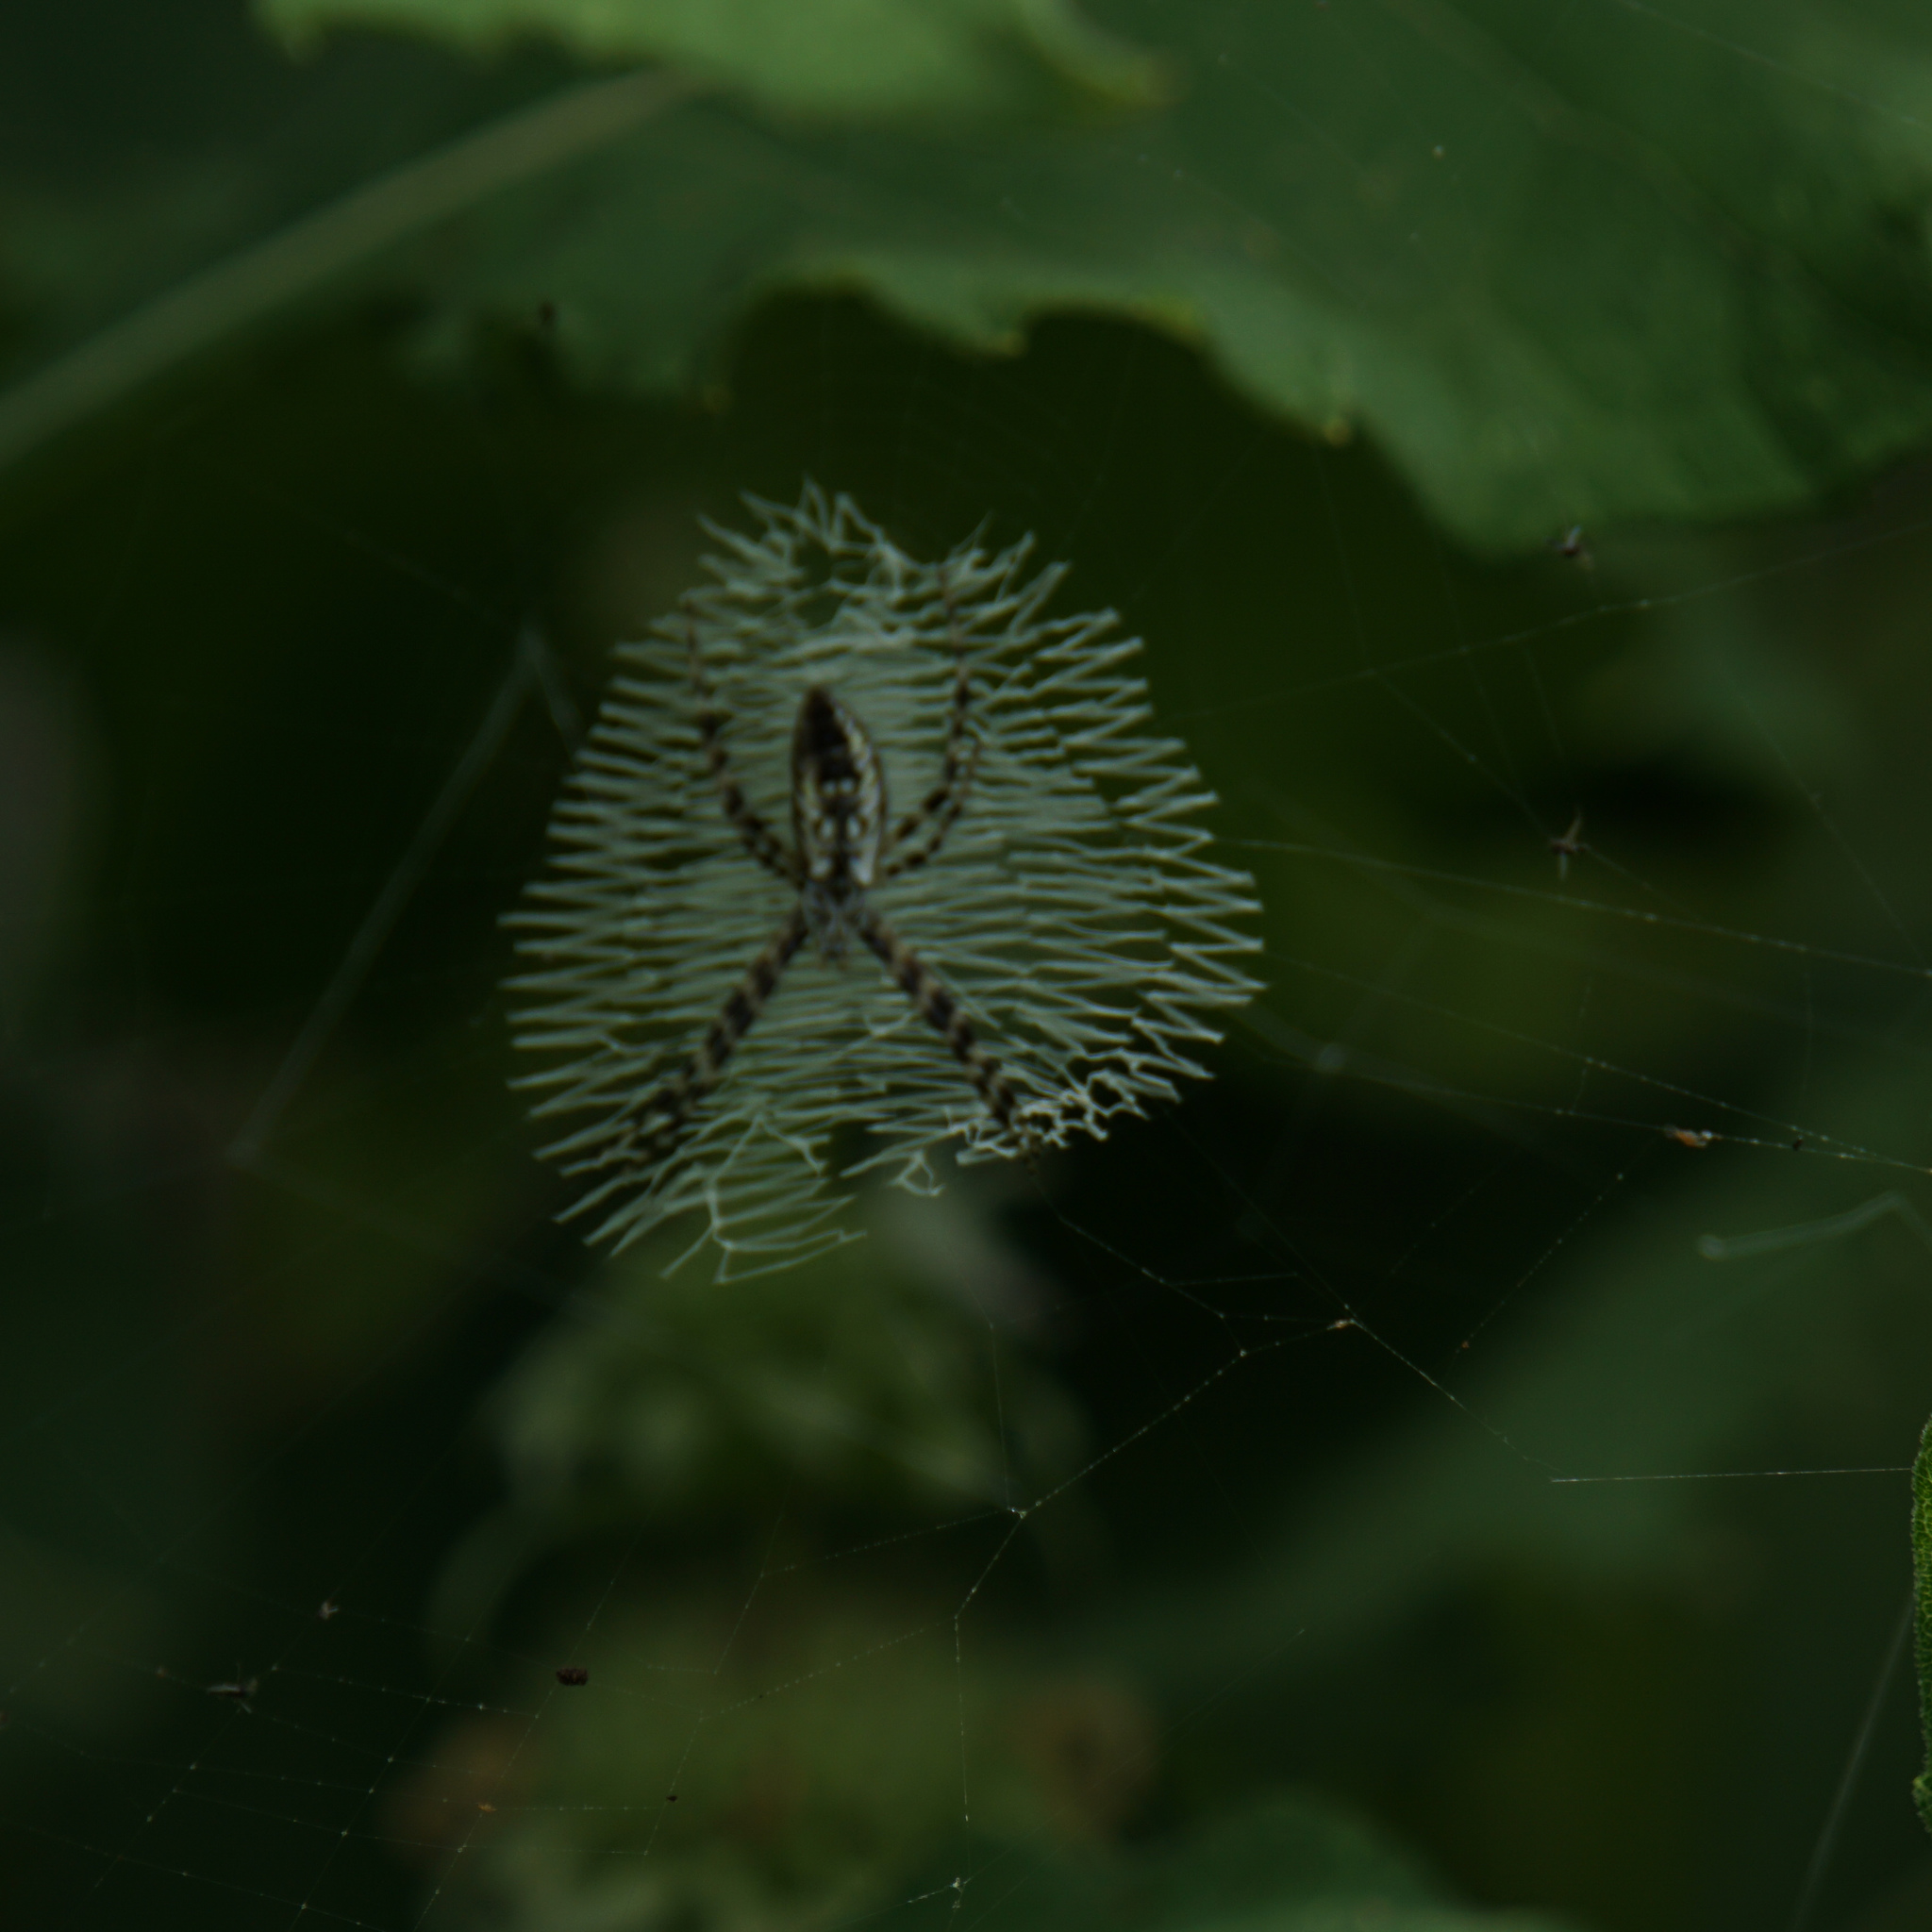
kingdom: Animalia
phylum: Arthropoda
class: Arachnida
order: Araneae
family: Araneidae
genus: Argiope
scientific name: Argiope aurantia
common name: Orb weavers
